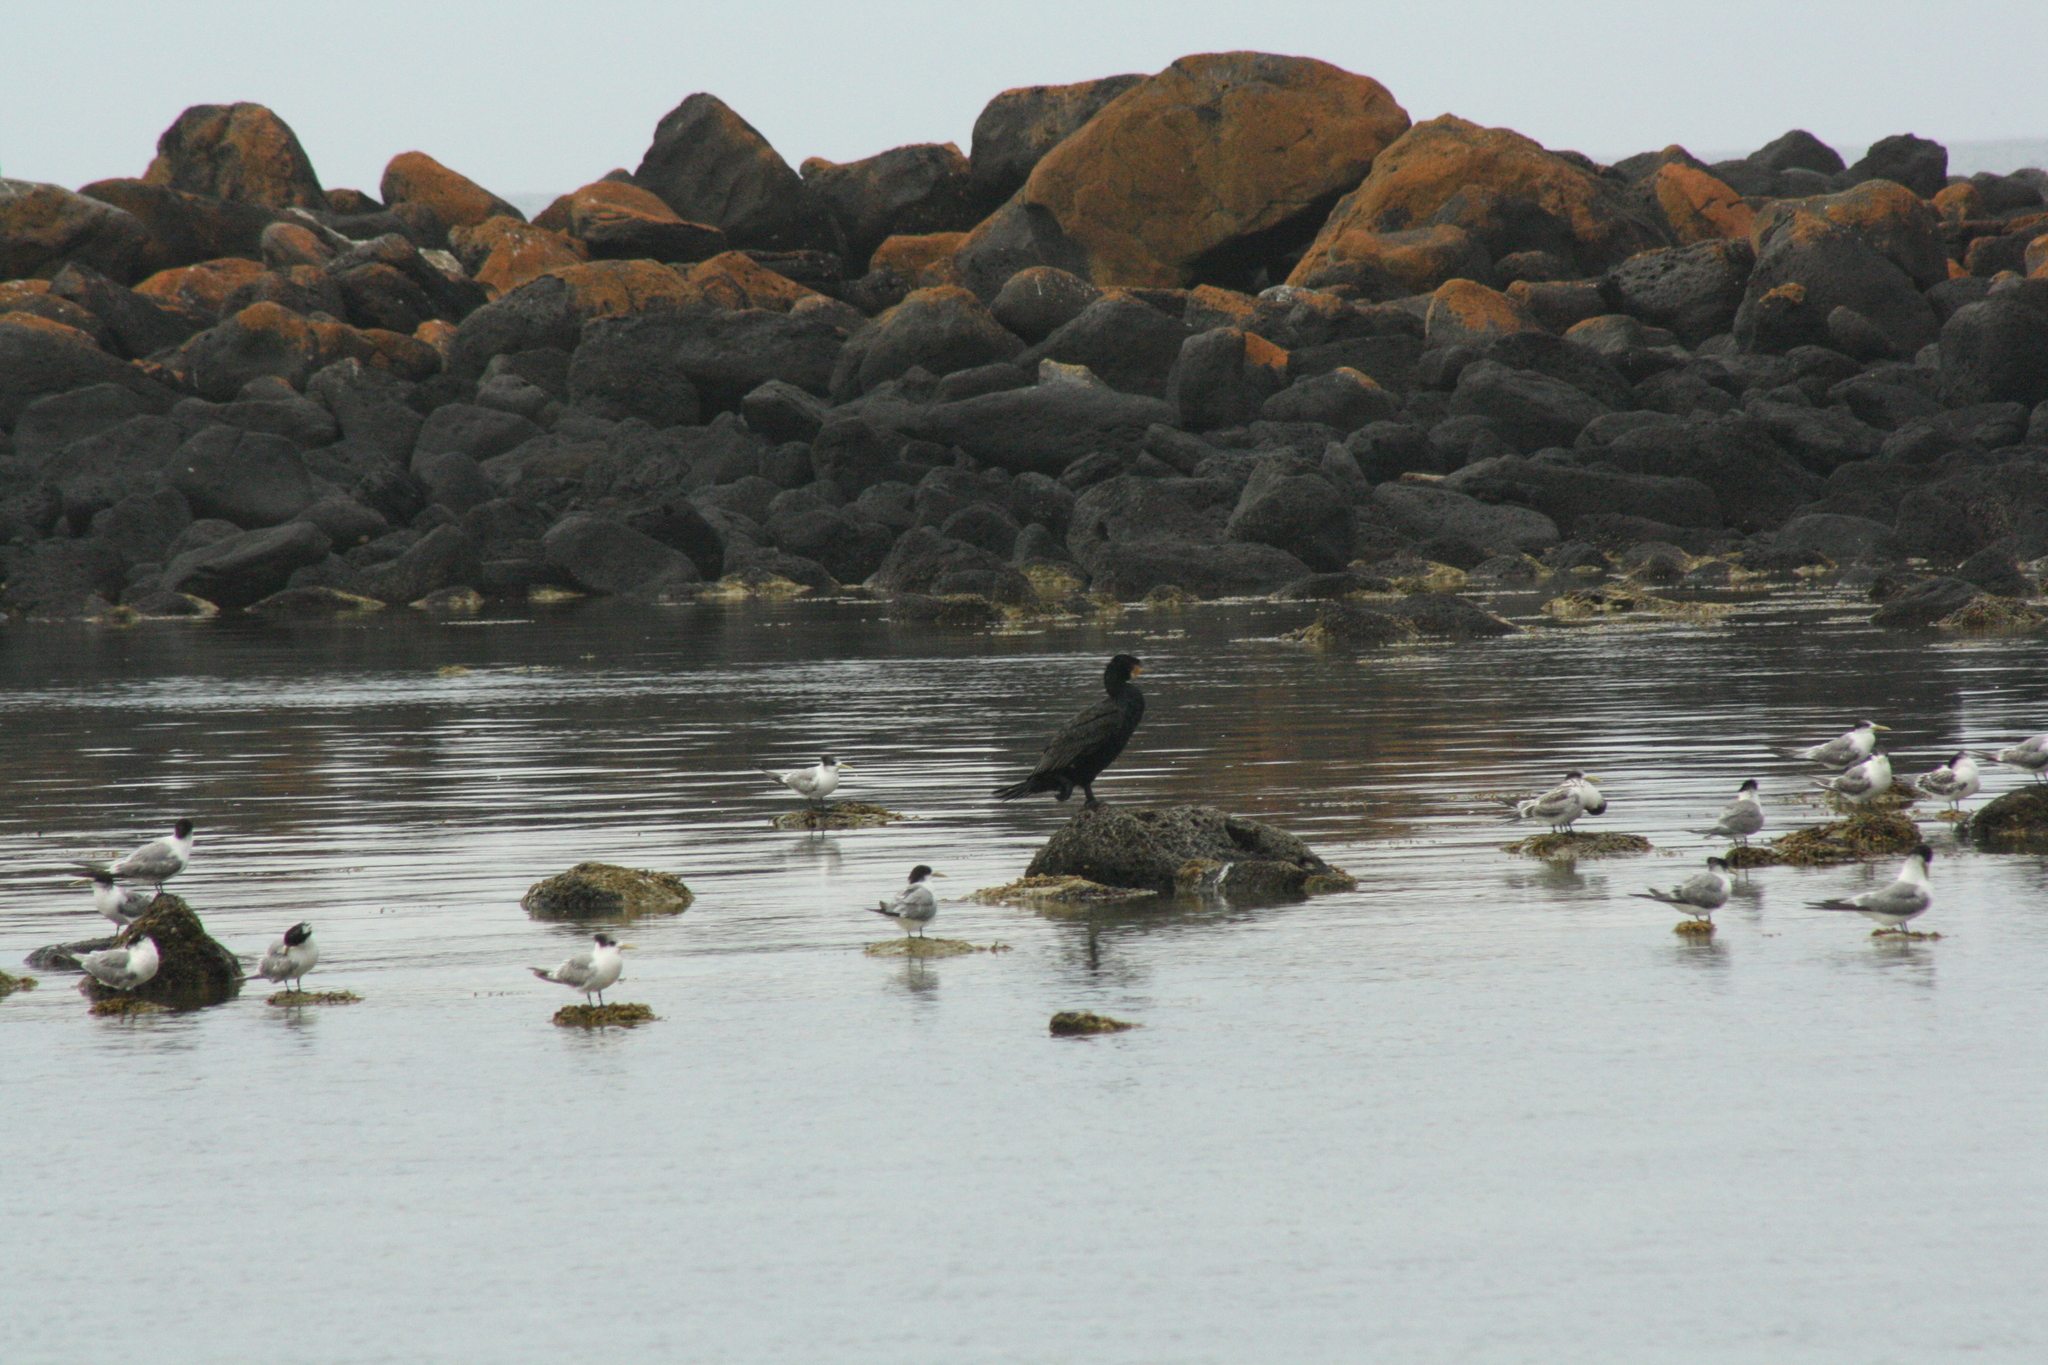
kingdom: Animalia
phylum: Chordata
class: Aves
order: Suliformes
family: Phalacrocoracidae
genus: Phalacrocorax
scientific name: Phalacrocorax carbo
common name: Great cormorant
